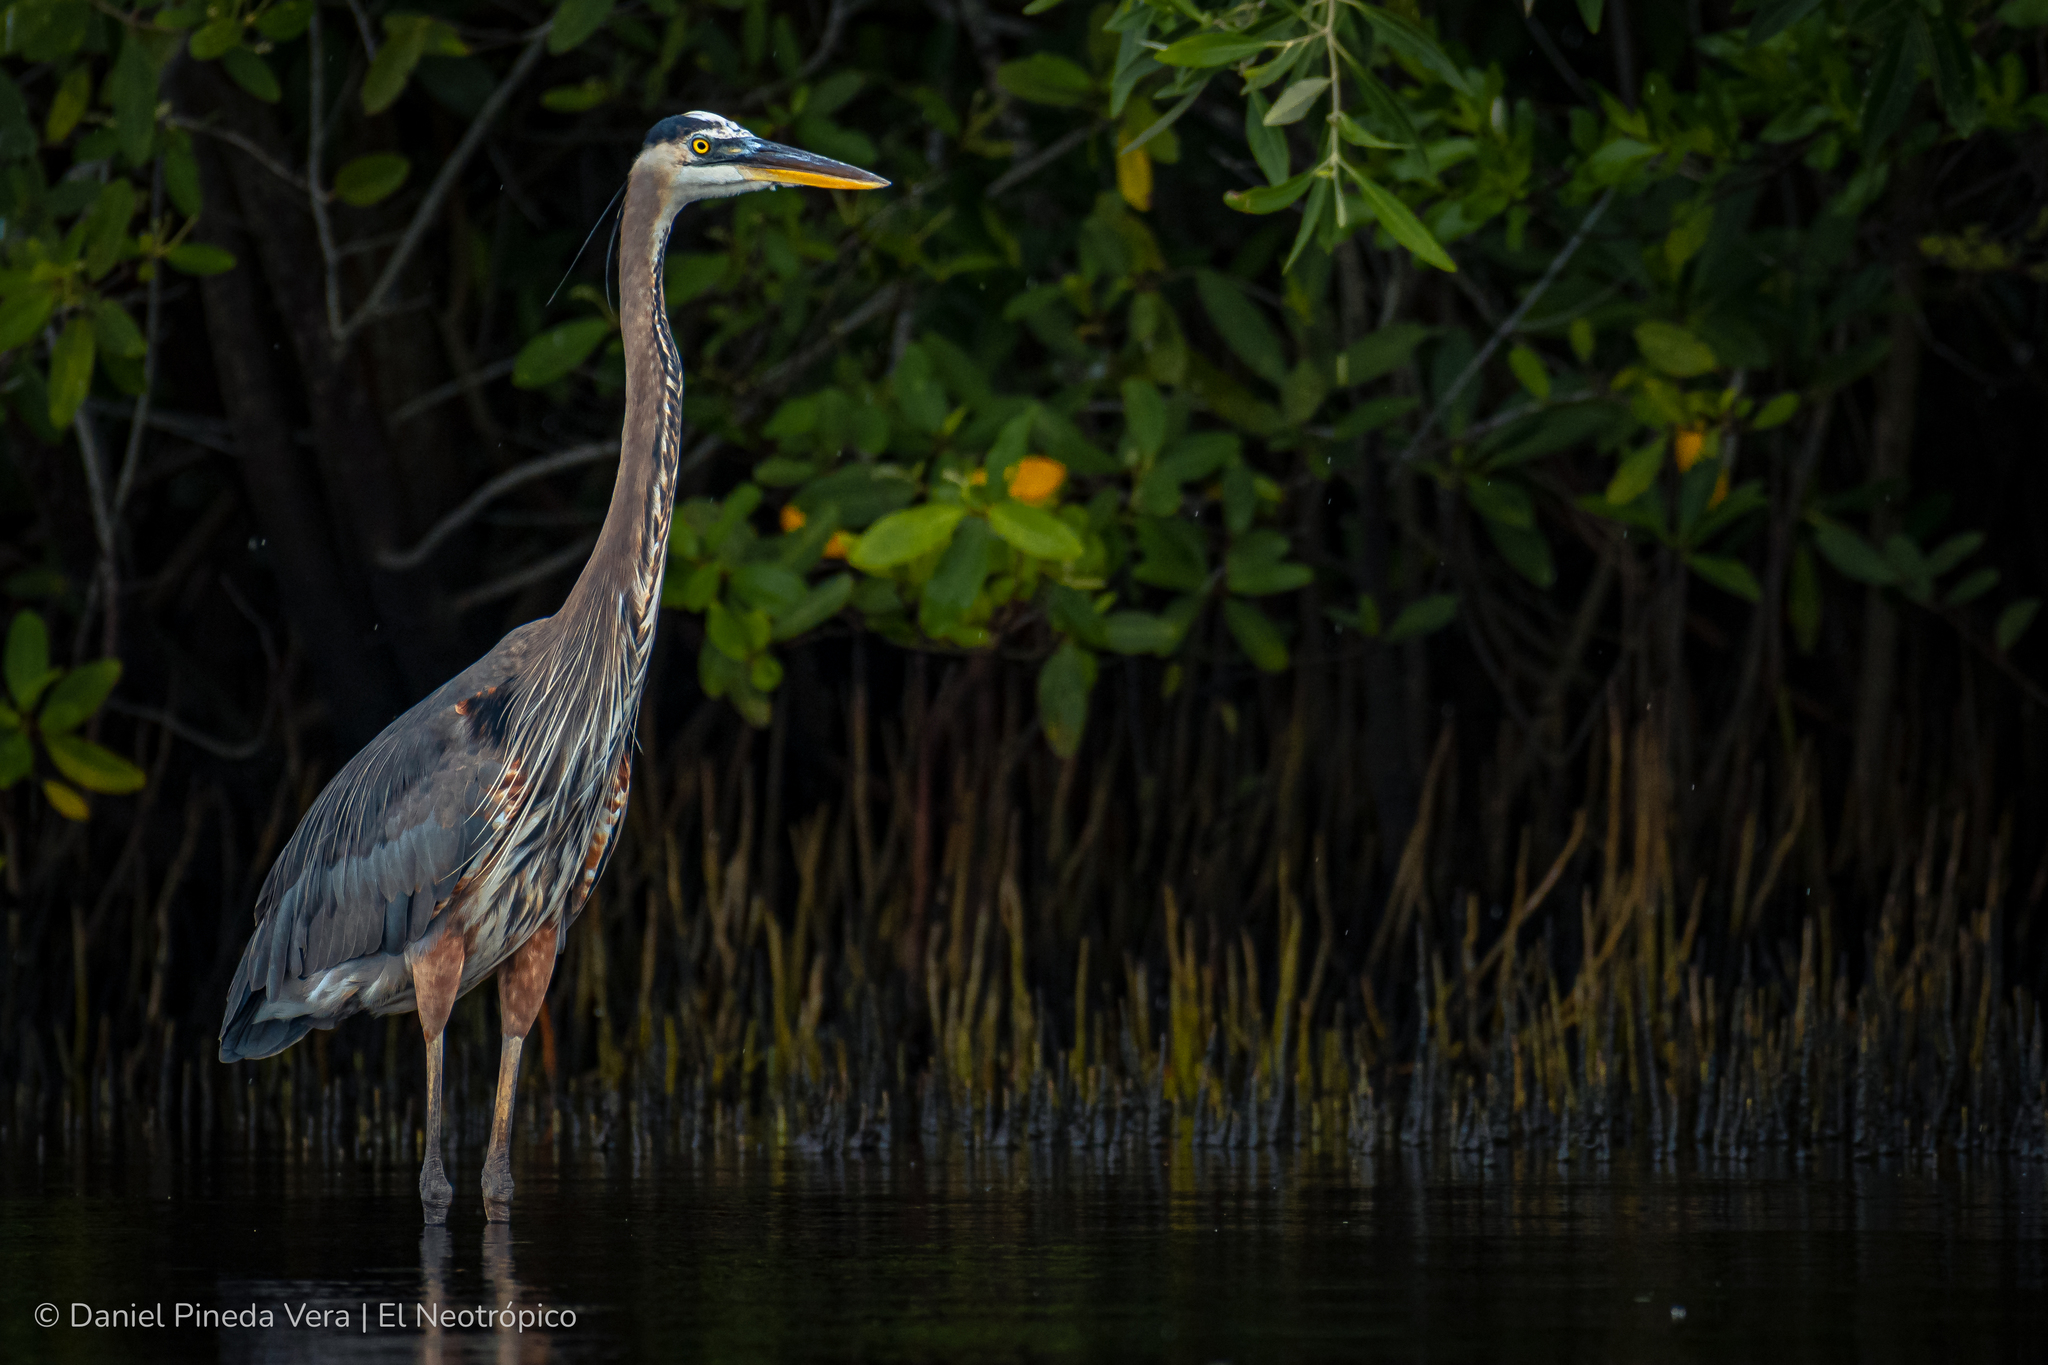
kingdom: Animalia
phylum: Chordata
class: Aves
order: Pelecaniformes
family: Ardeidae
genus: Ardea
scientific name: Ardea herodias
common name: Great blue heron
